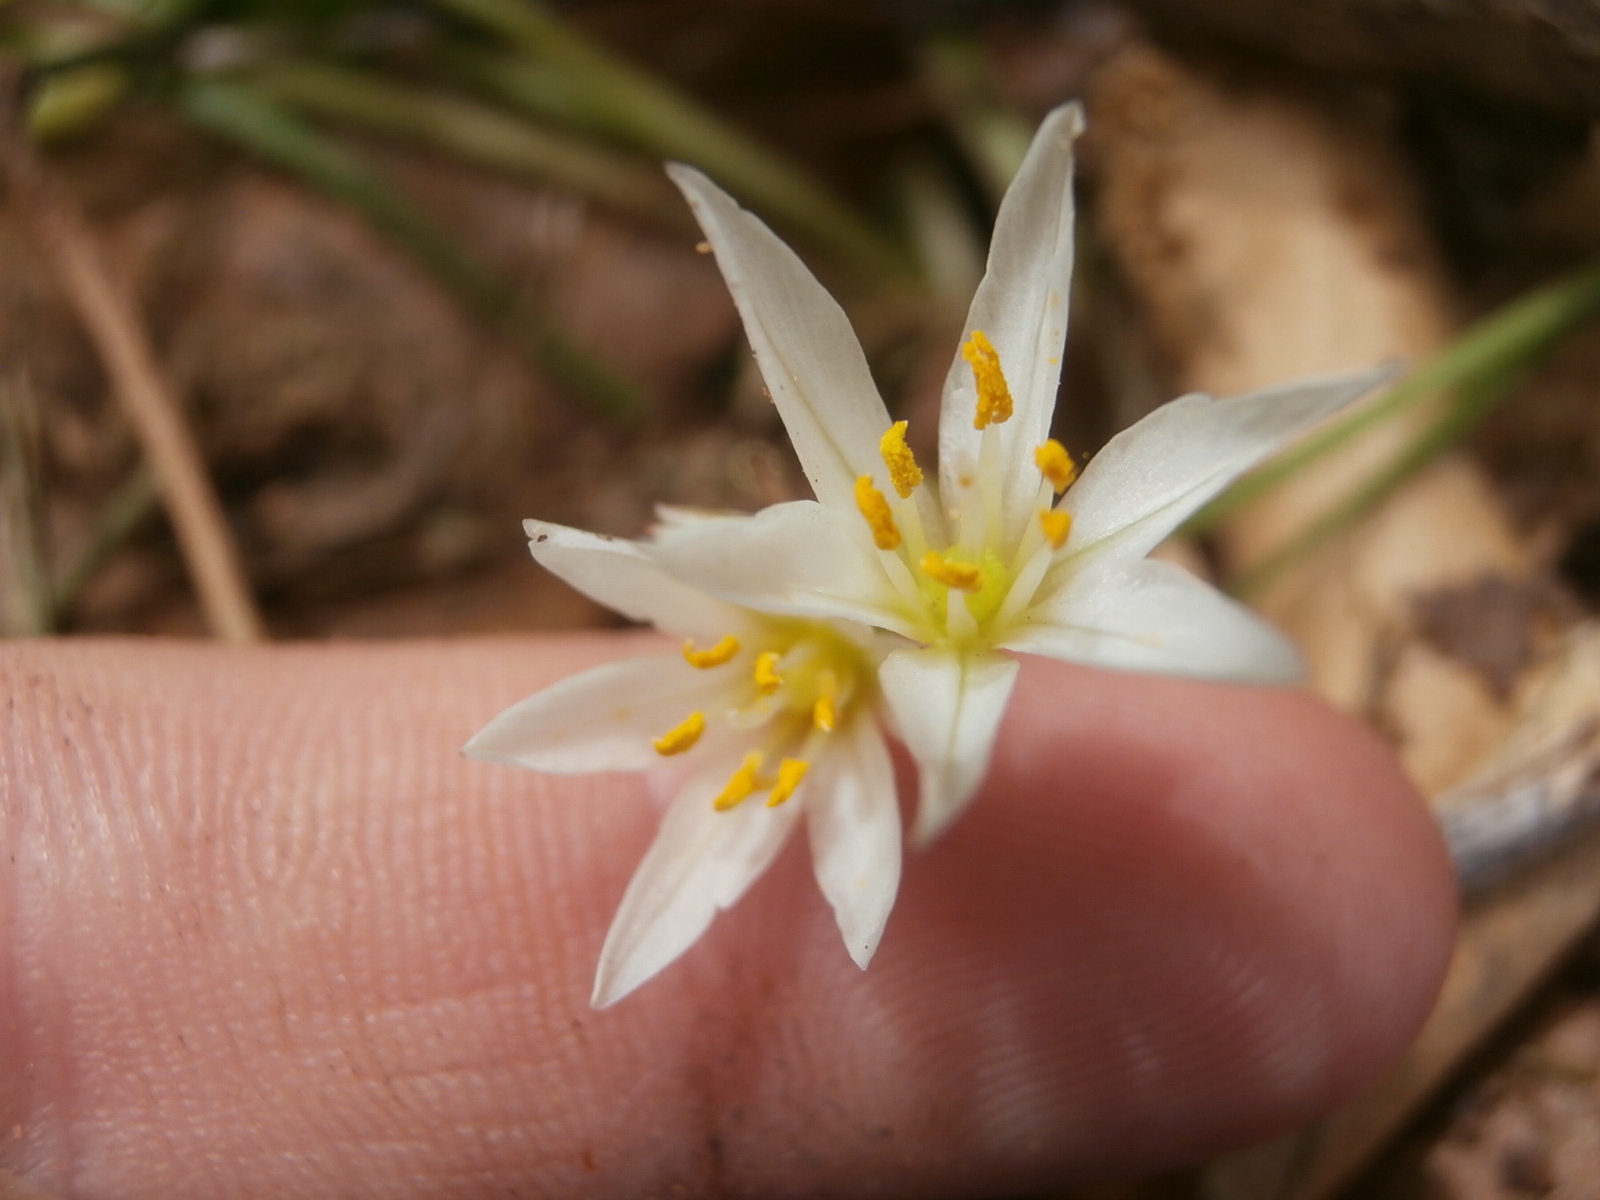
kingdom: Plantae
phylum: Tracheophyta
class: Liliopsida
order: Asparagales
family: Amaryllidaceae
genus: Nothoscordum
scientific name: Nothoscordum bivalve
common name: Crow-poison
